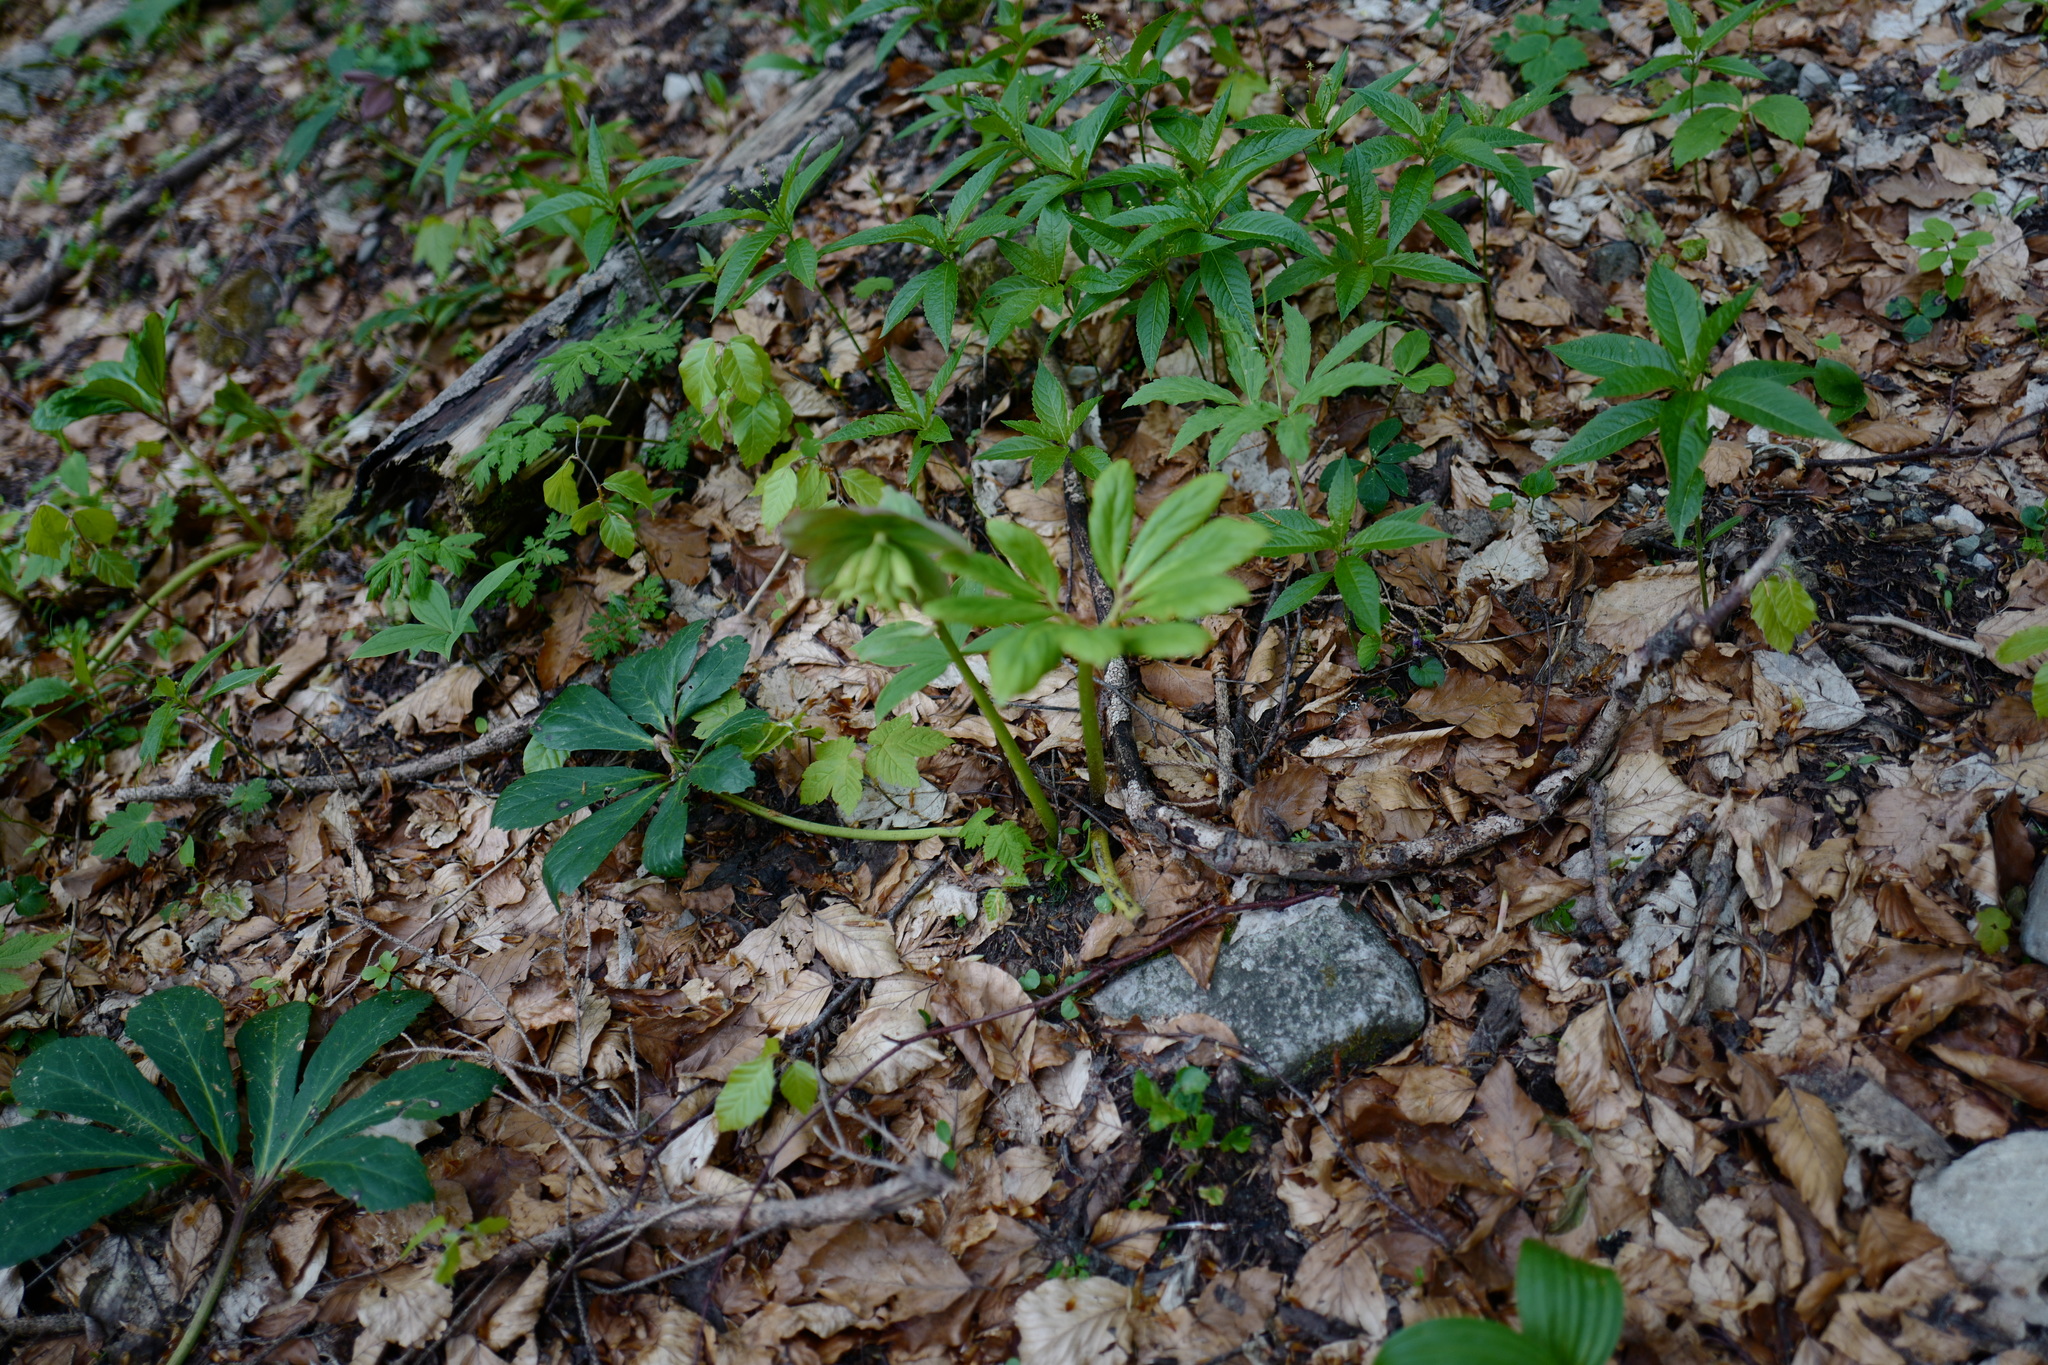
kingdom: Plantae
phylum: Tracheophyta
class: Magnoliopsida
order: Ranunculales
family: Ranunculaceae
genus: Helleborus
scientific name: Helleborus niger
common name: Black hellebore
